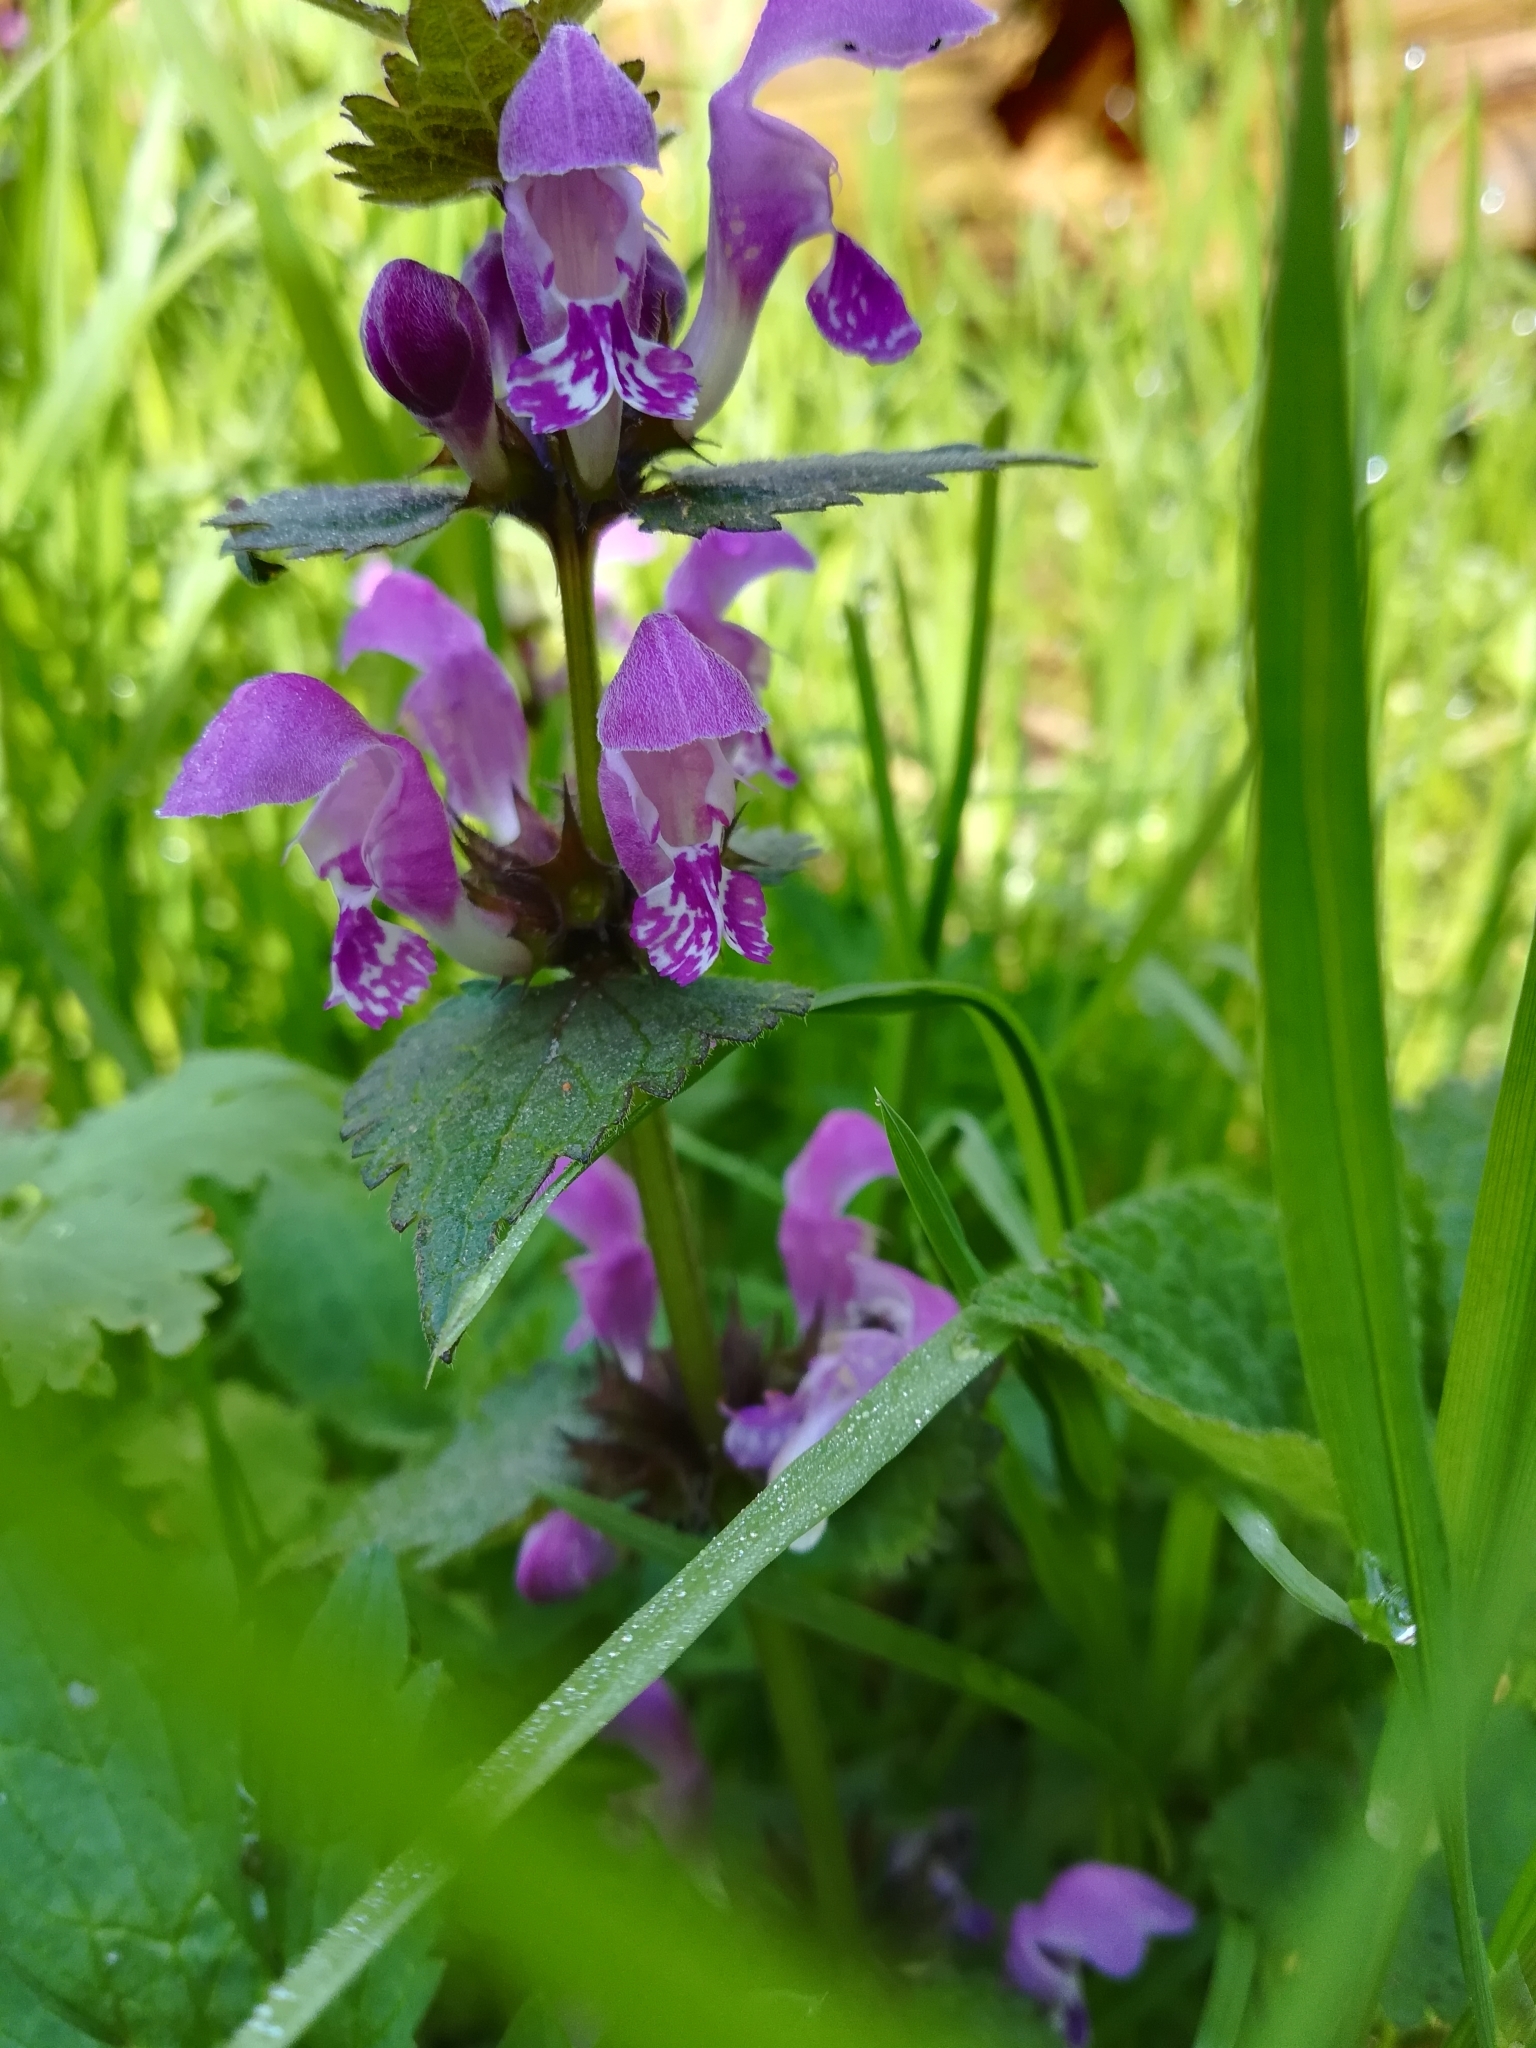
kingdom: Plantae
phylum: Tracheophyta
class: Magnoliopsida
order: Lamiales
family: Lamiaceae
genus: Lamium
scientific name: Lamium maculatum
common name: Spotted dead-nettle
